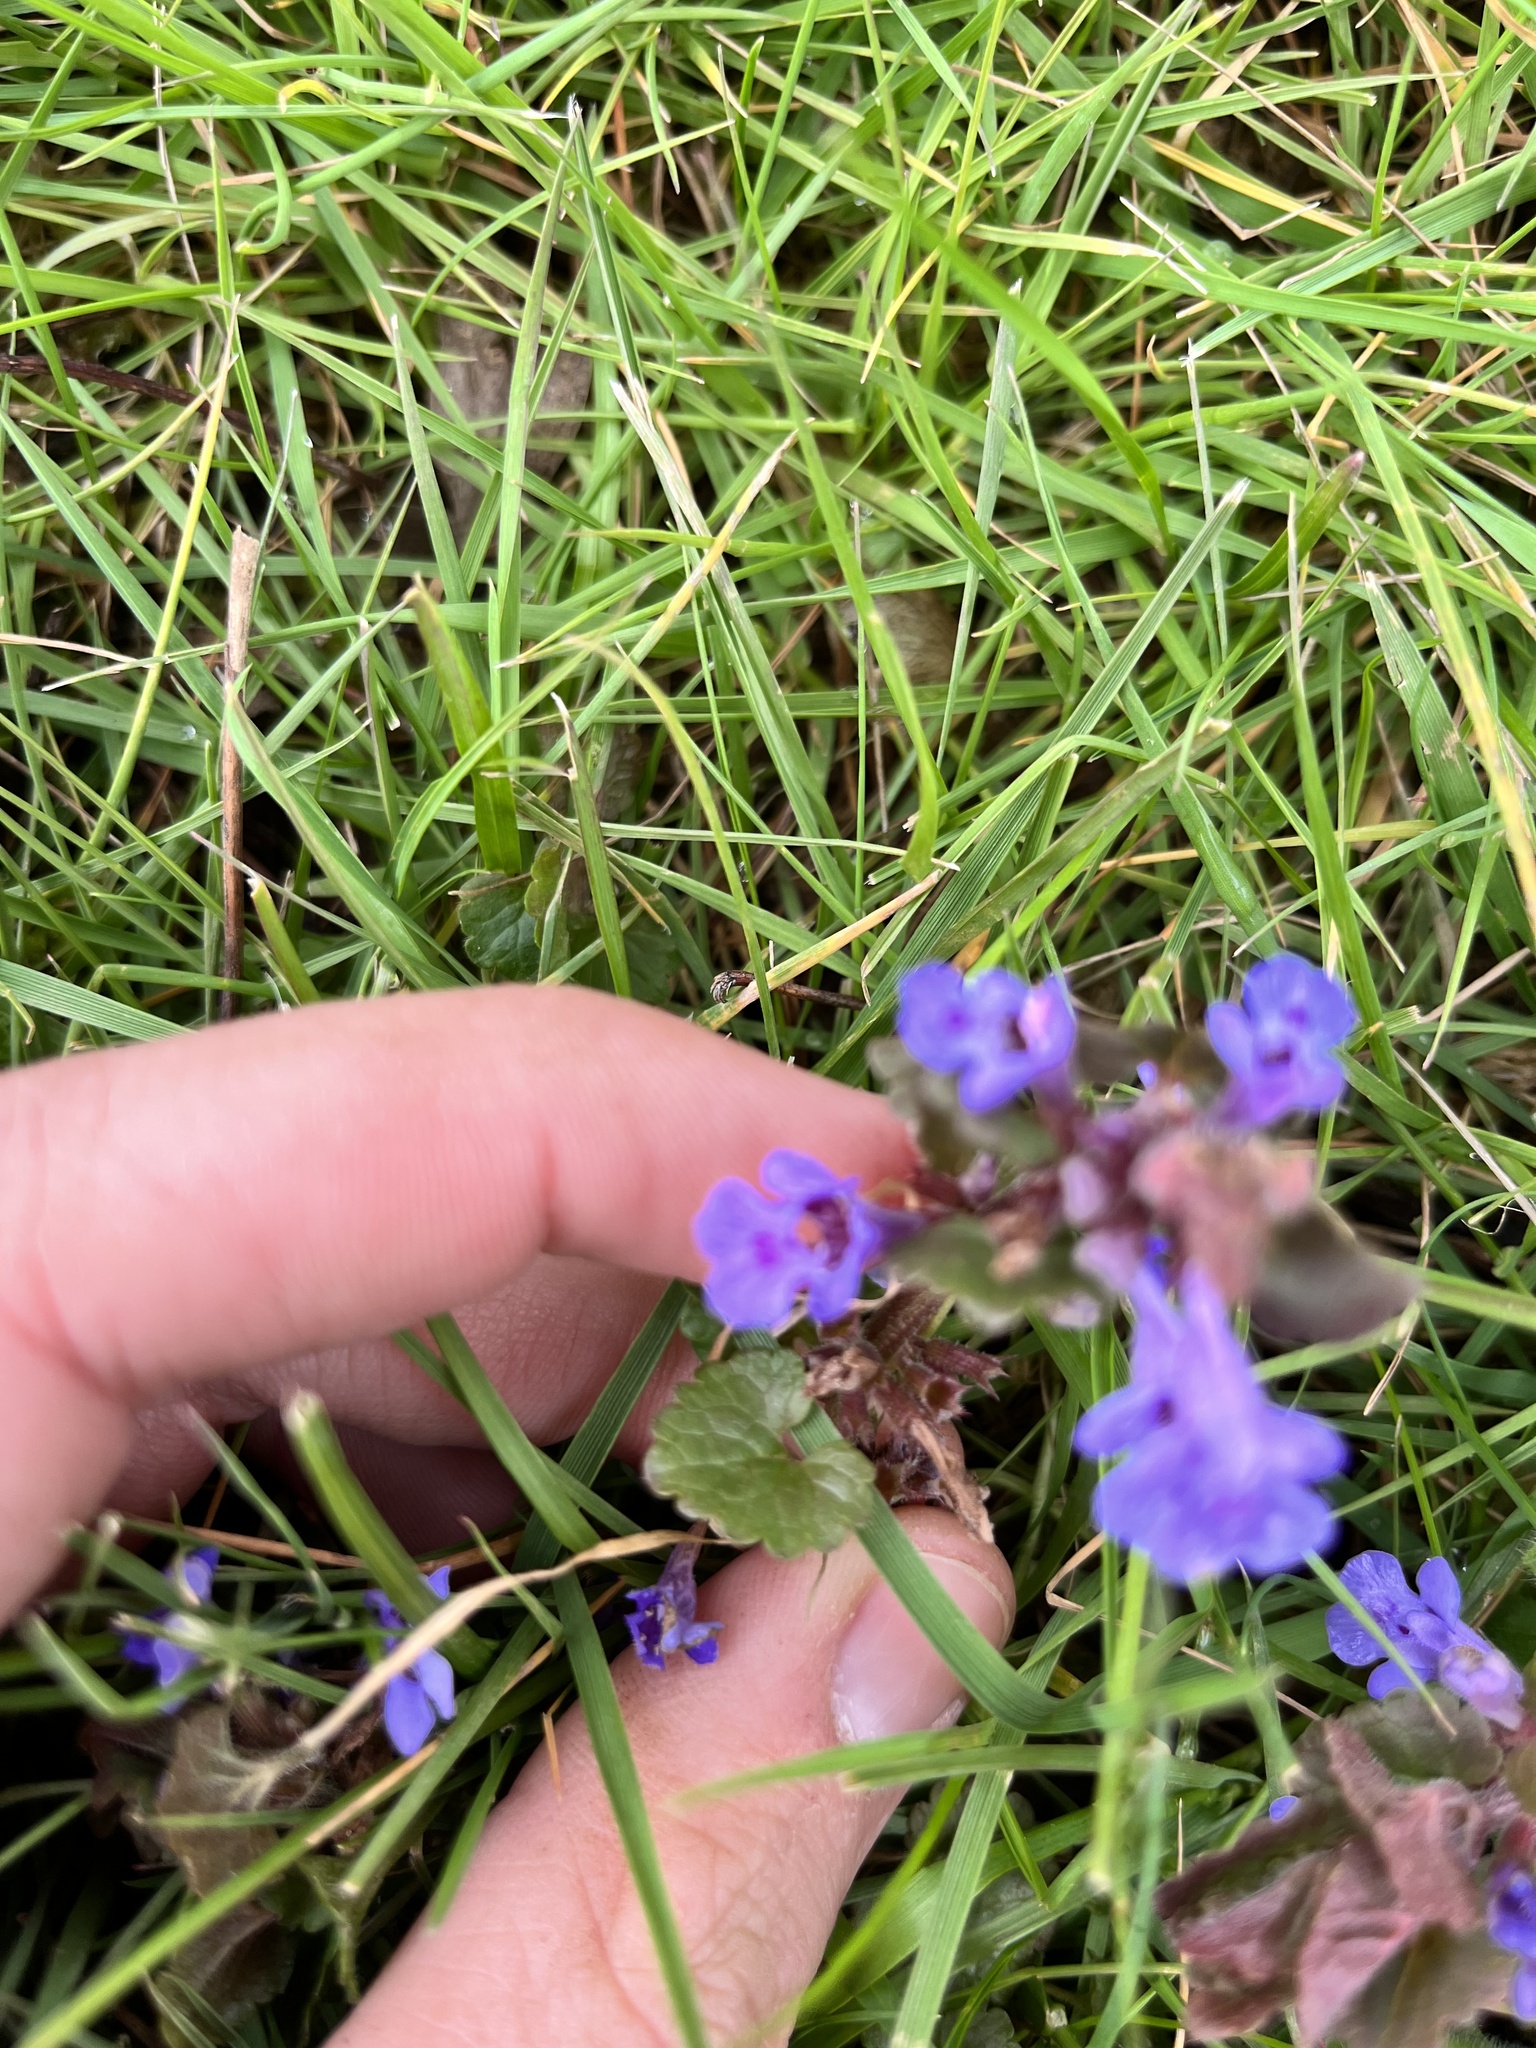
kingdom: Plantae
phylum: Tracheophyta
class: Magnoliopsida
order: Lamiales
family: Lamiaceae
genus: Glechoma
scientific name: Glechoma hederacea
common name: Ground ivy
